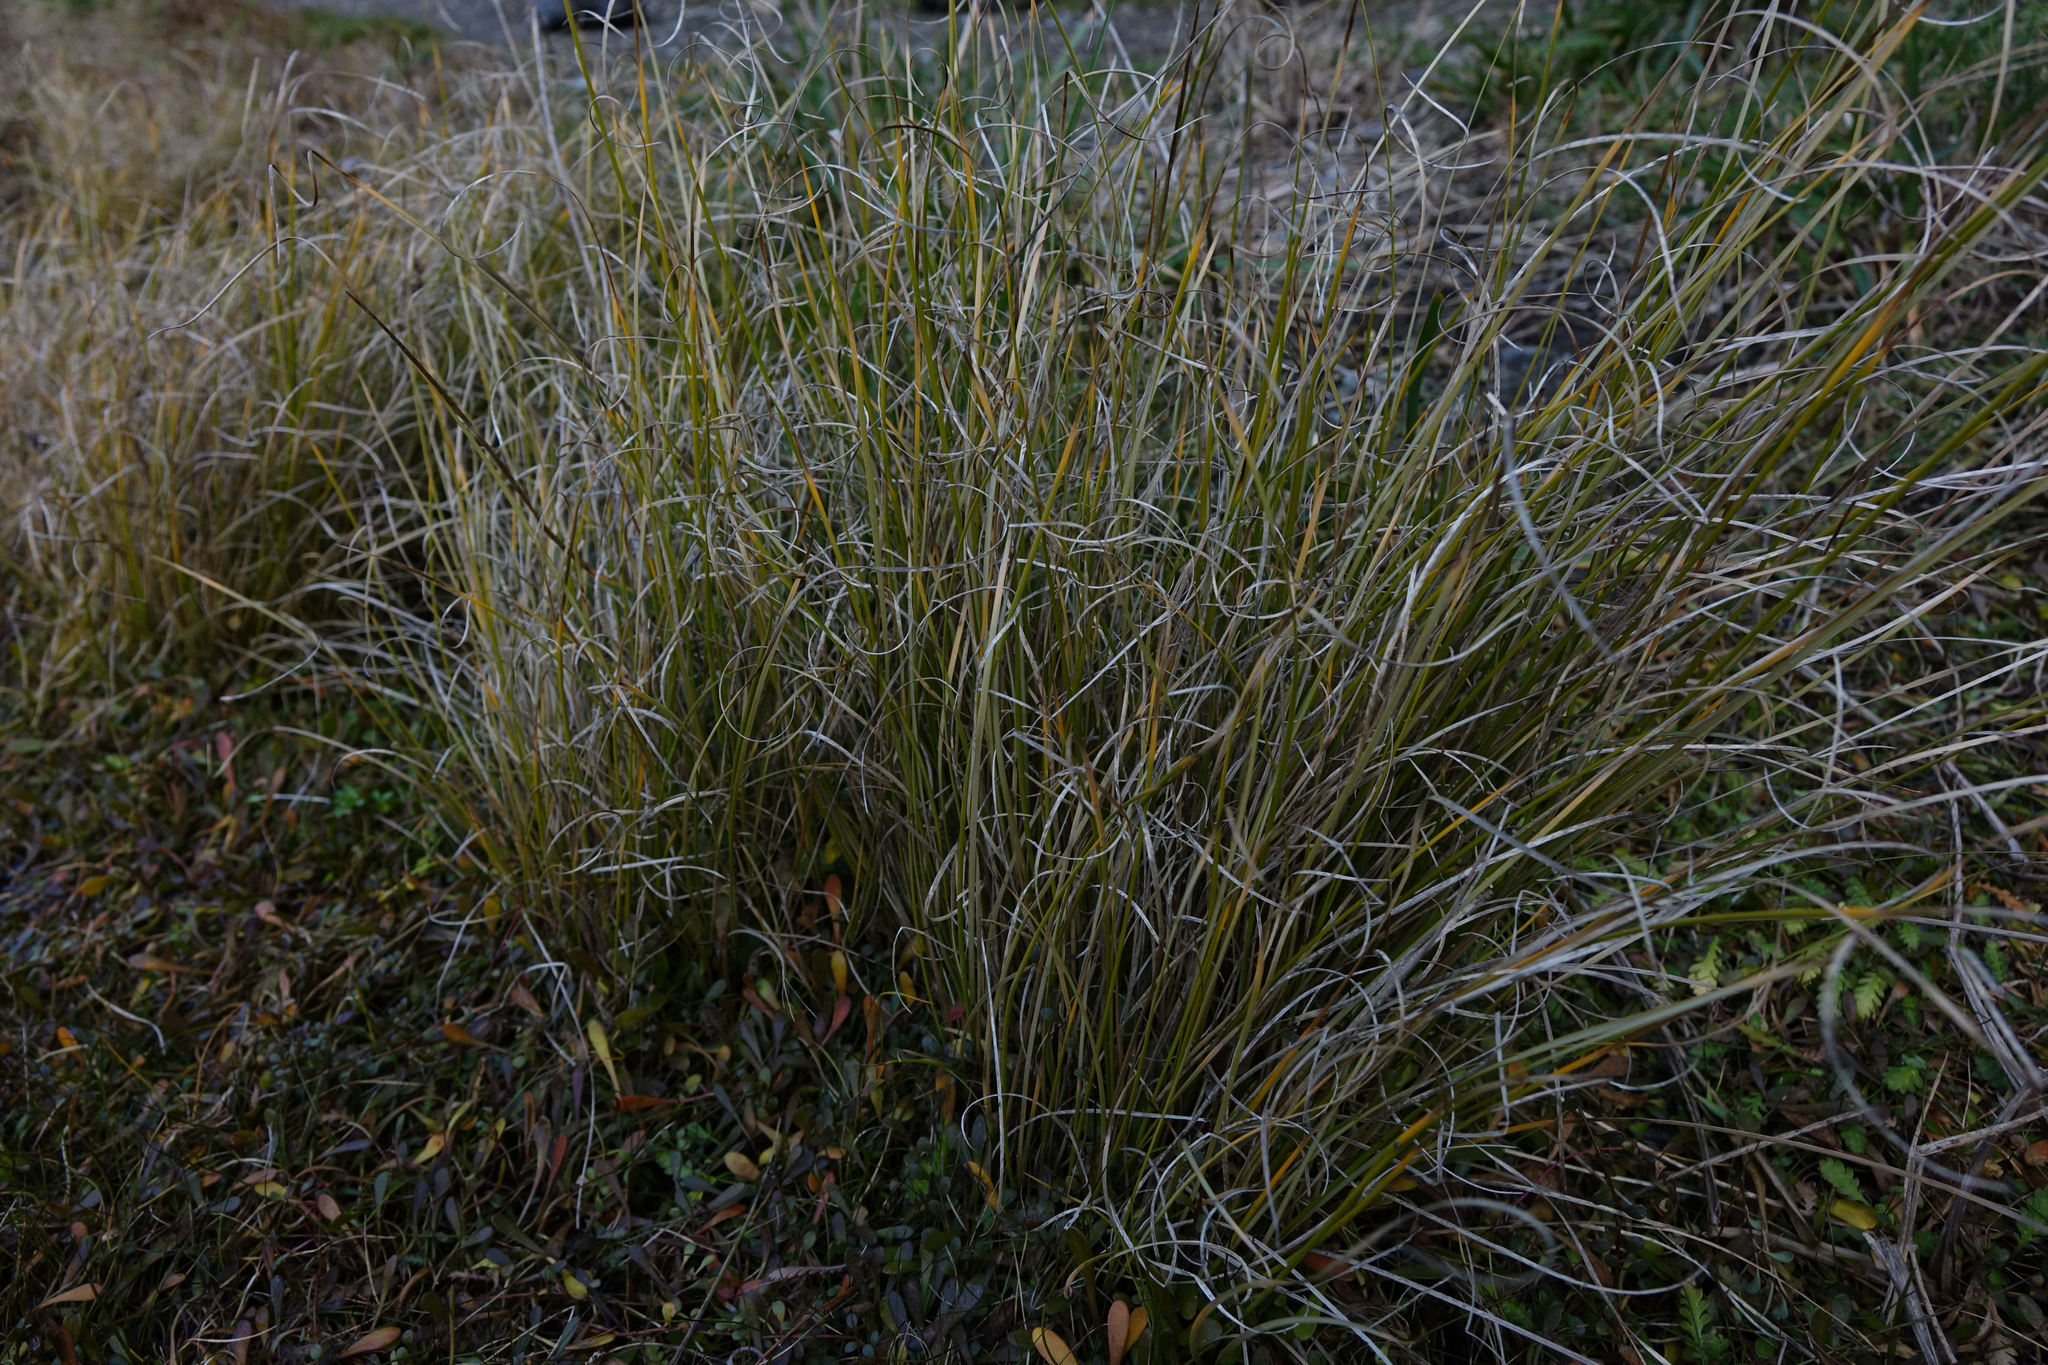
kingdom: Plantae
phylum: Tracheophyta
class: Liliopsida
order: Poales
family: Cyperaceae
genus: Carex
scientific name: Carex litorosa
